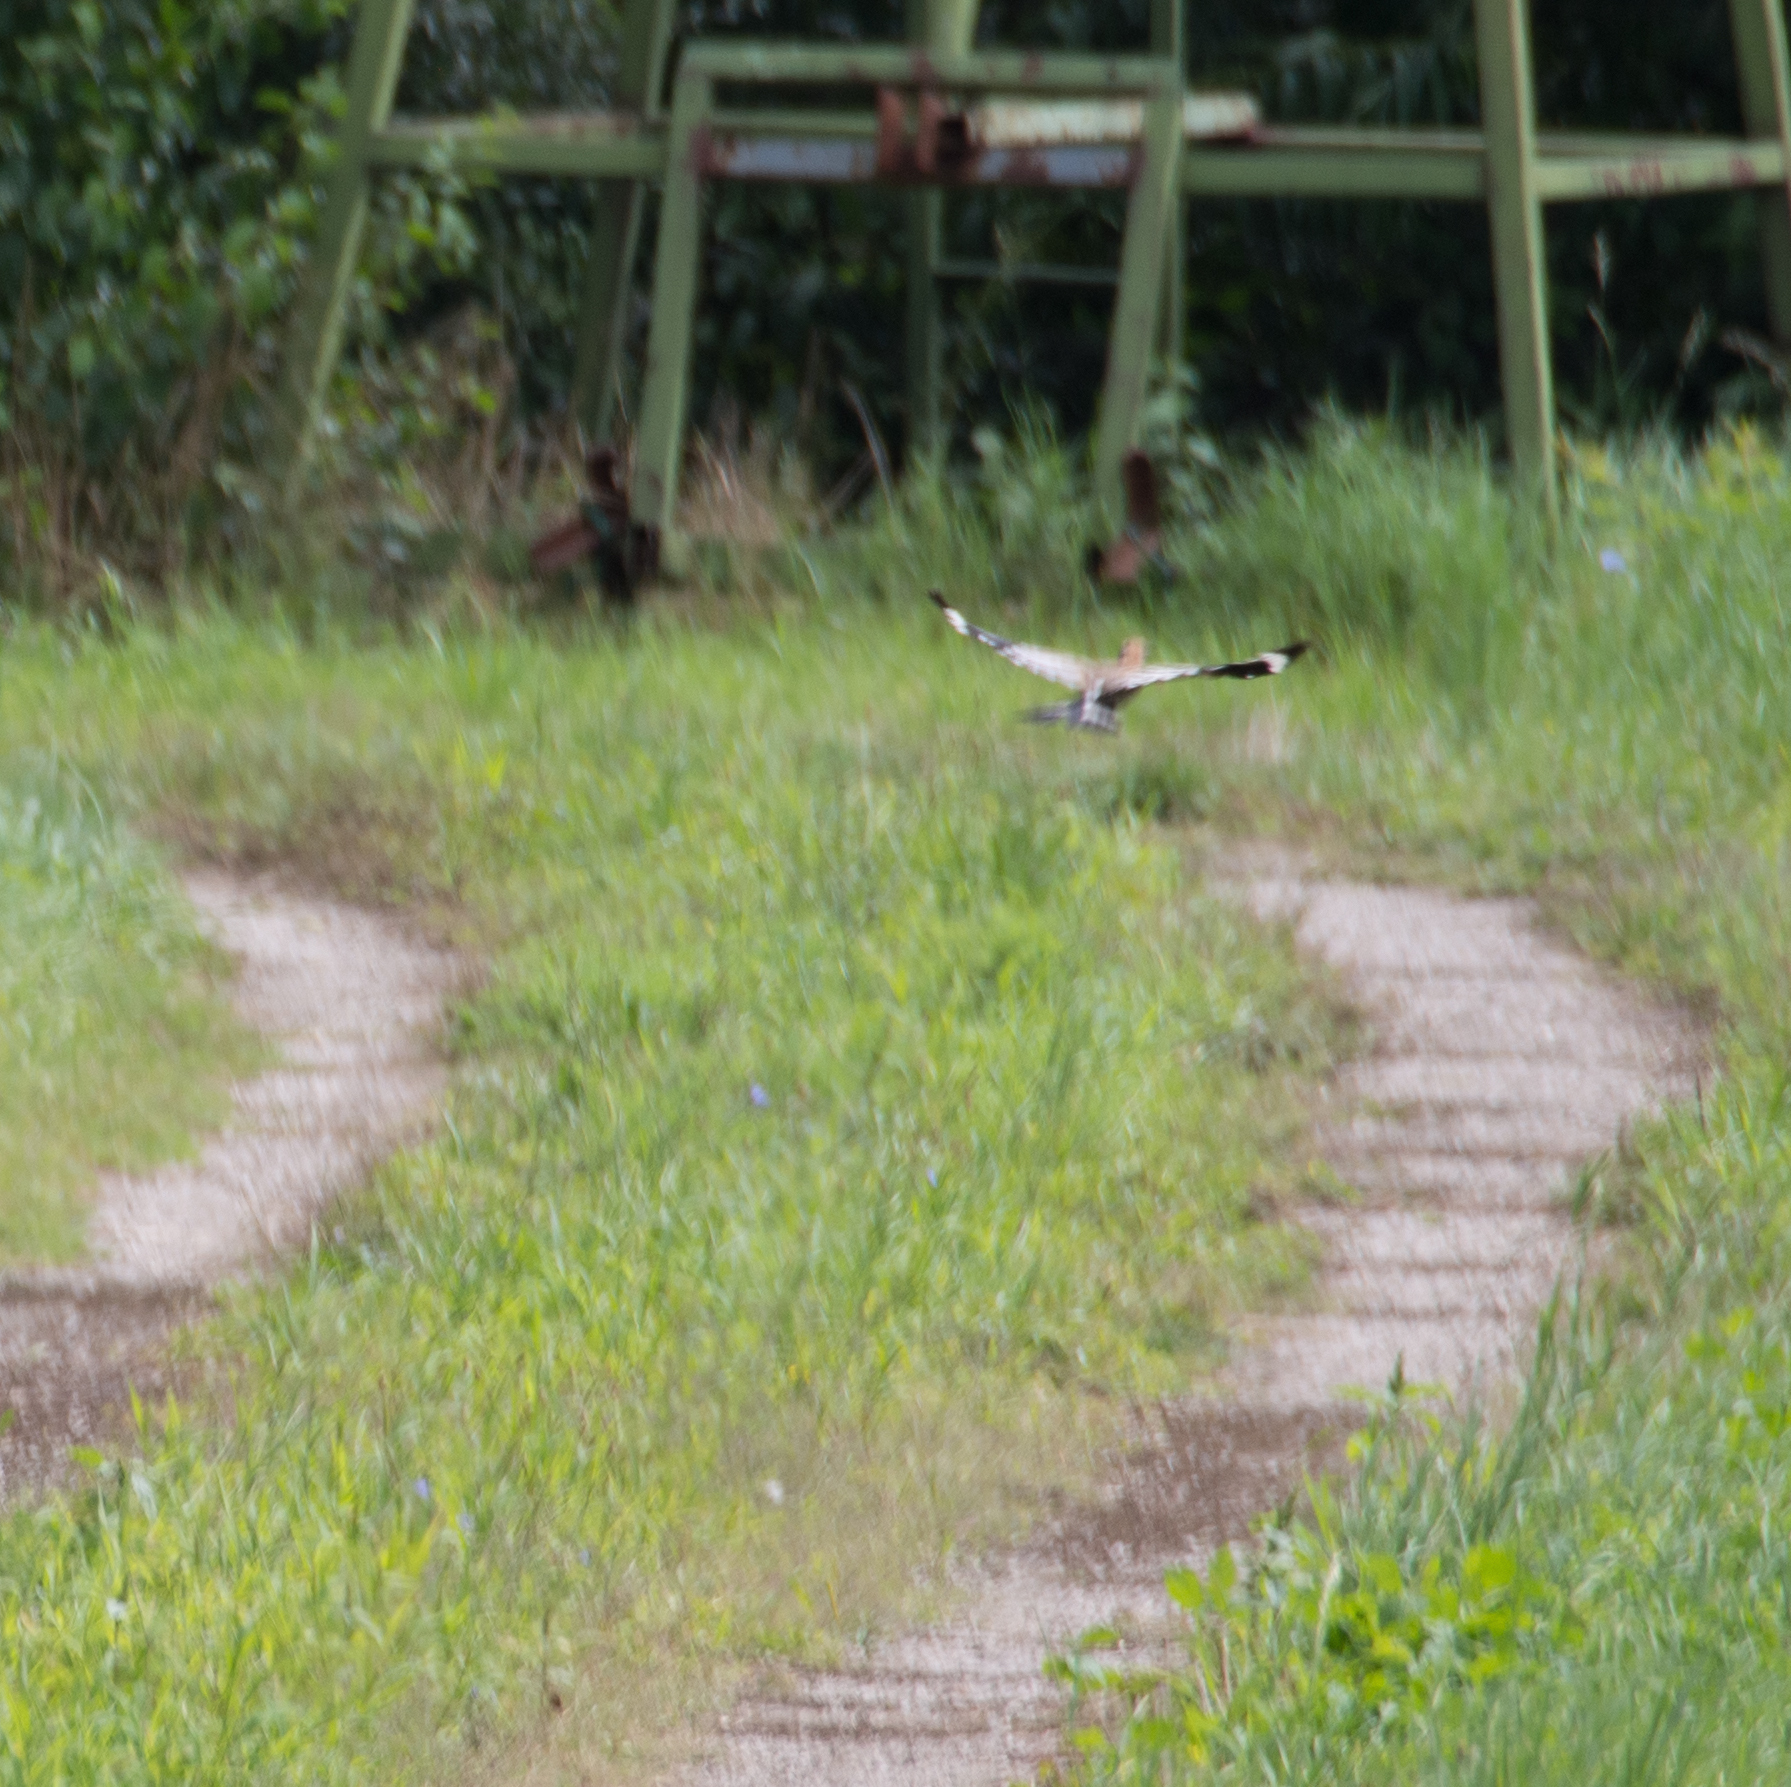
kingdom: Animalia
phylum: Chordata
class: Aves
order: Bucerotiformes
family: Upupidae
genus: Upupa
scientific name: Upupa epops
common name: Eurasian hoopoe
